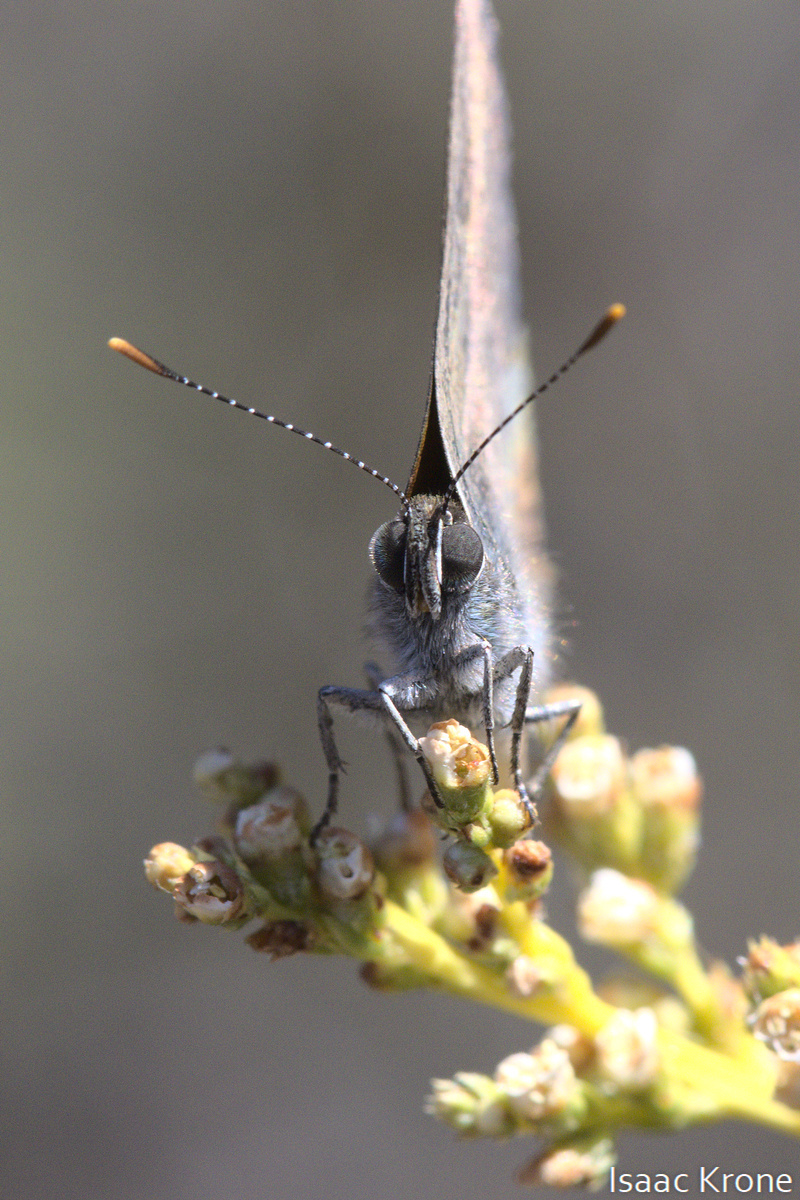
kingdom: Animalia
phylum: Arthropoda
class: Insecta
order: Lepidoptera
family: Lycaenidae
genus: Strymon
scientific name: Strymon saepium
